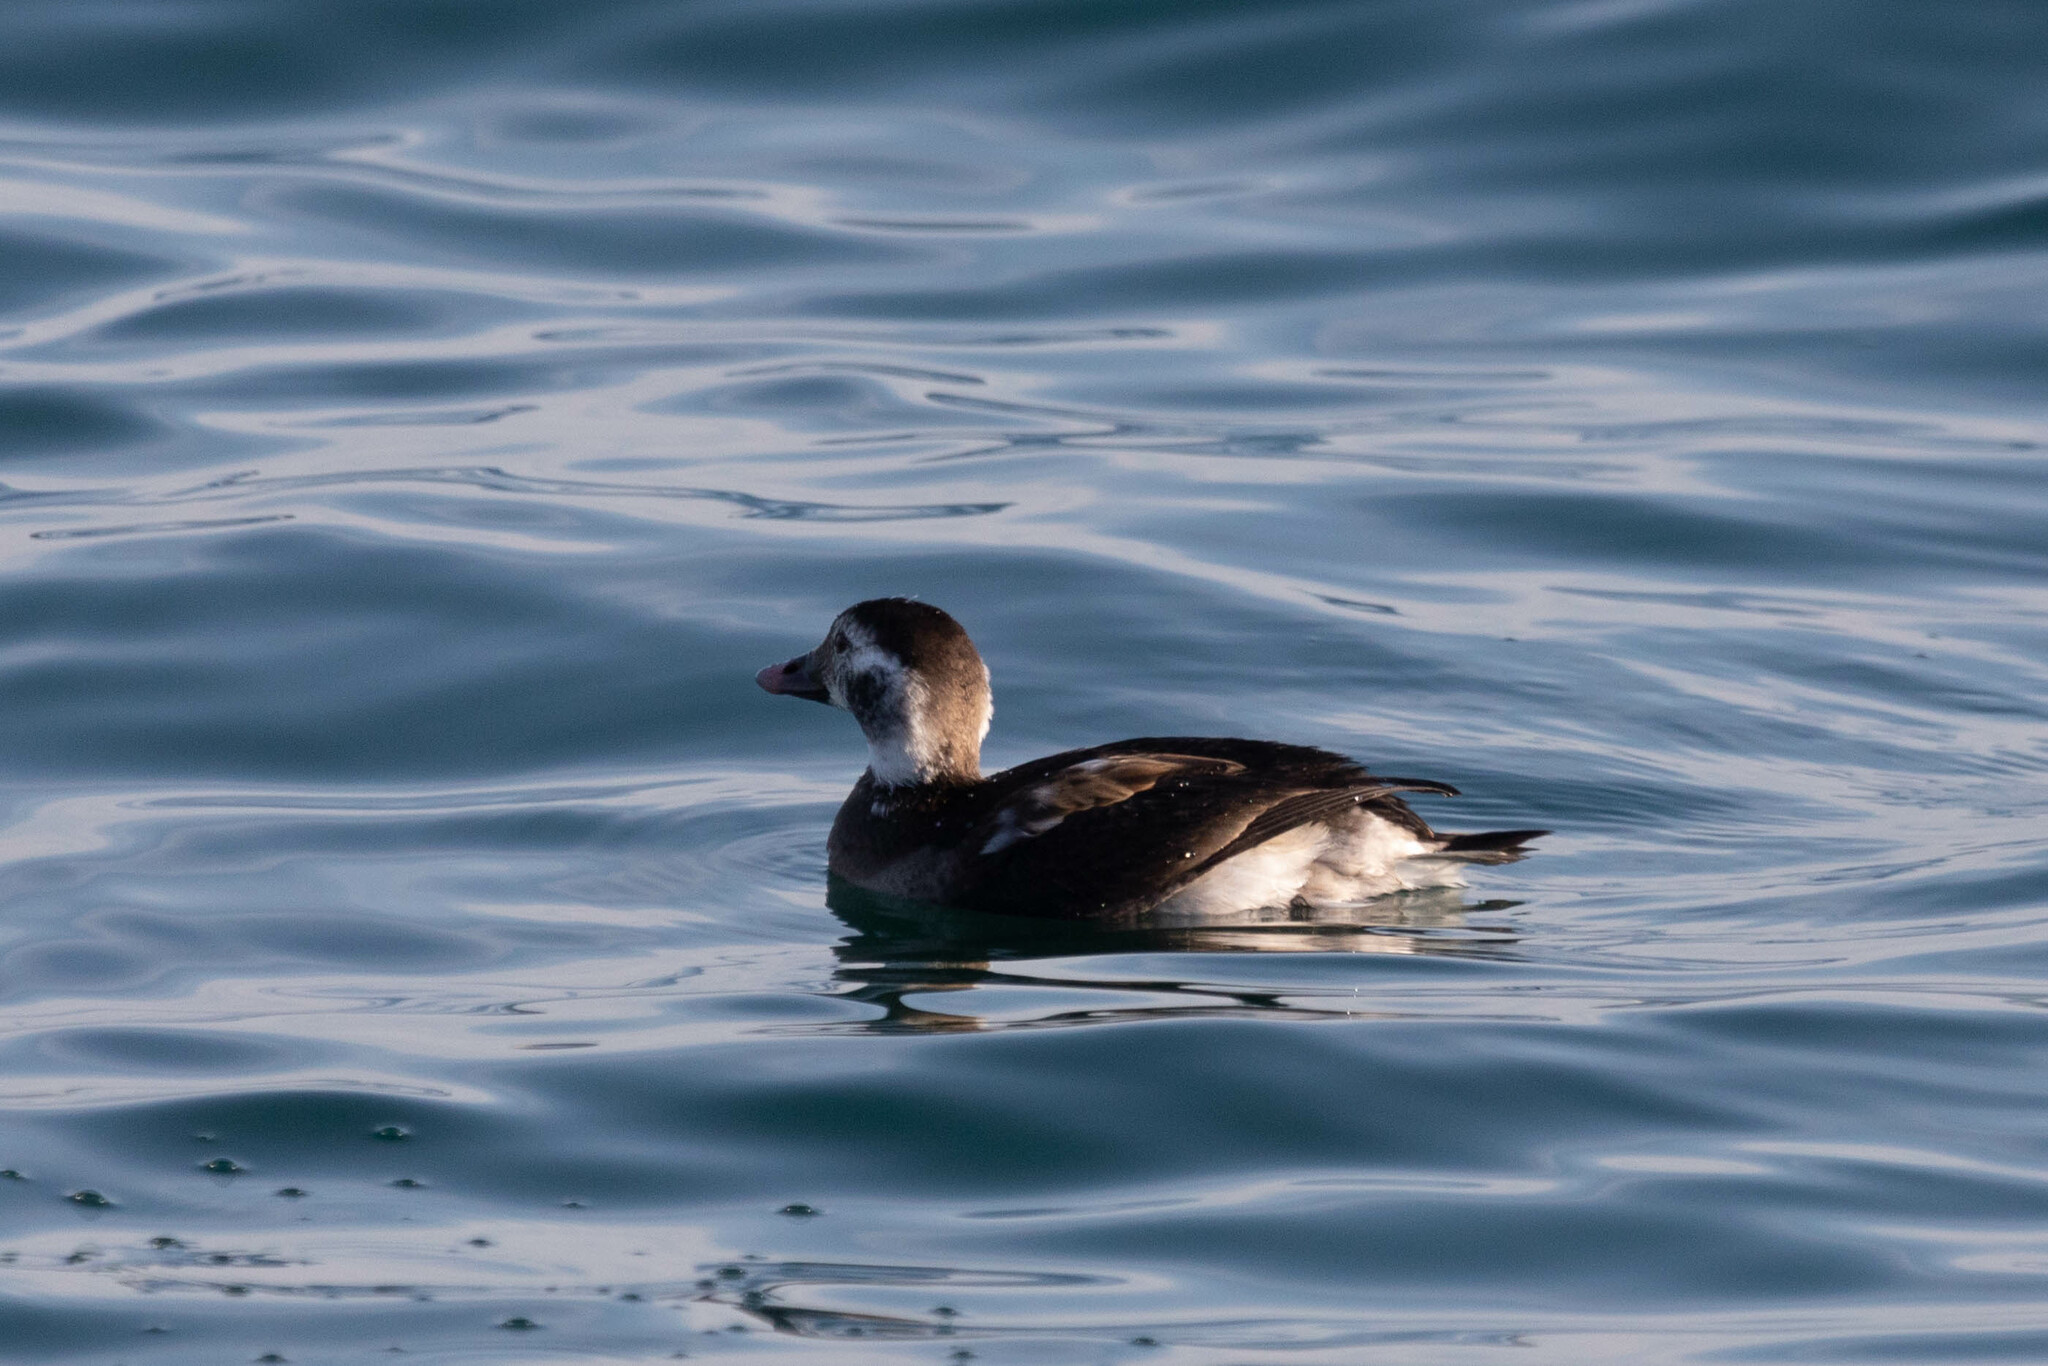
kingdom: Animalia
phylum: Chordata
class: Aves
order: Anseriformes
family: Anatidae
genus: Clangula
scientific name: Clangula hyemalis
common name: Long-tailed duck
